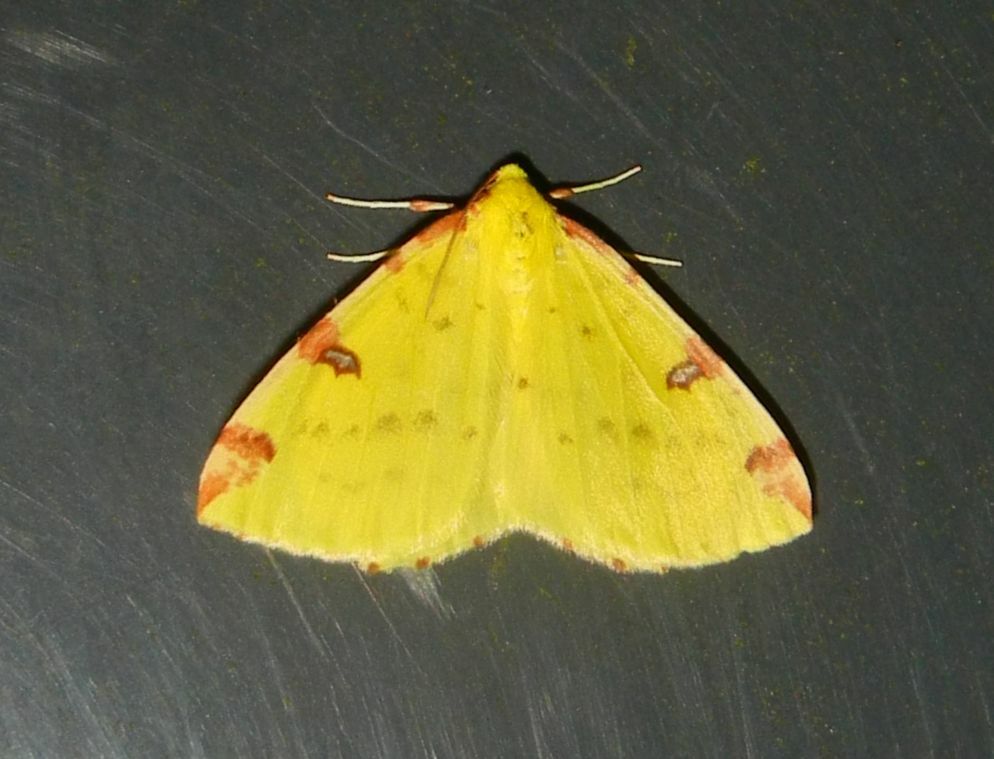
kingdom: Animalia
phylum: Arthropoda
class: Insecta
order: Lepidoptera
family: Geometridae
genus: Opisthograptis
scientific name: Opisthograptis luteolata
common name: Brimstone moth
